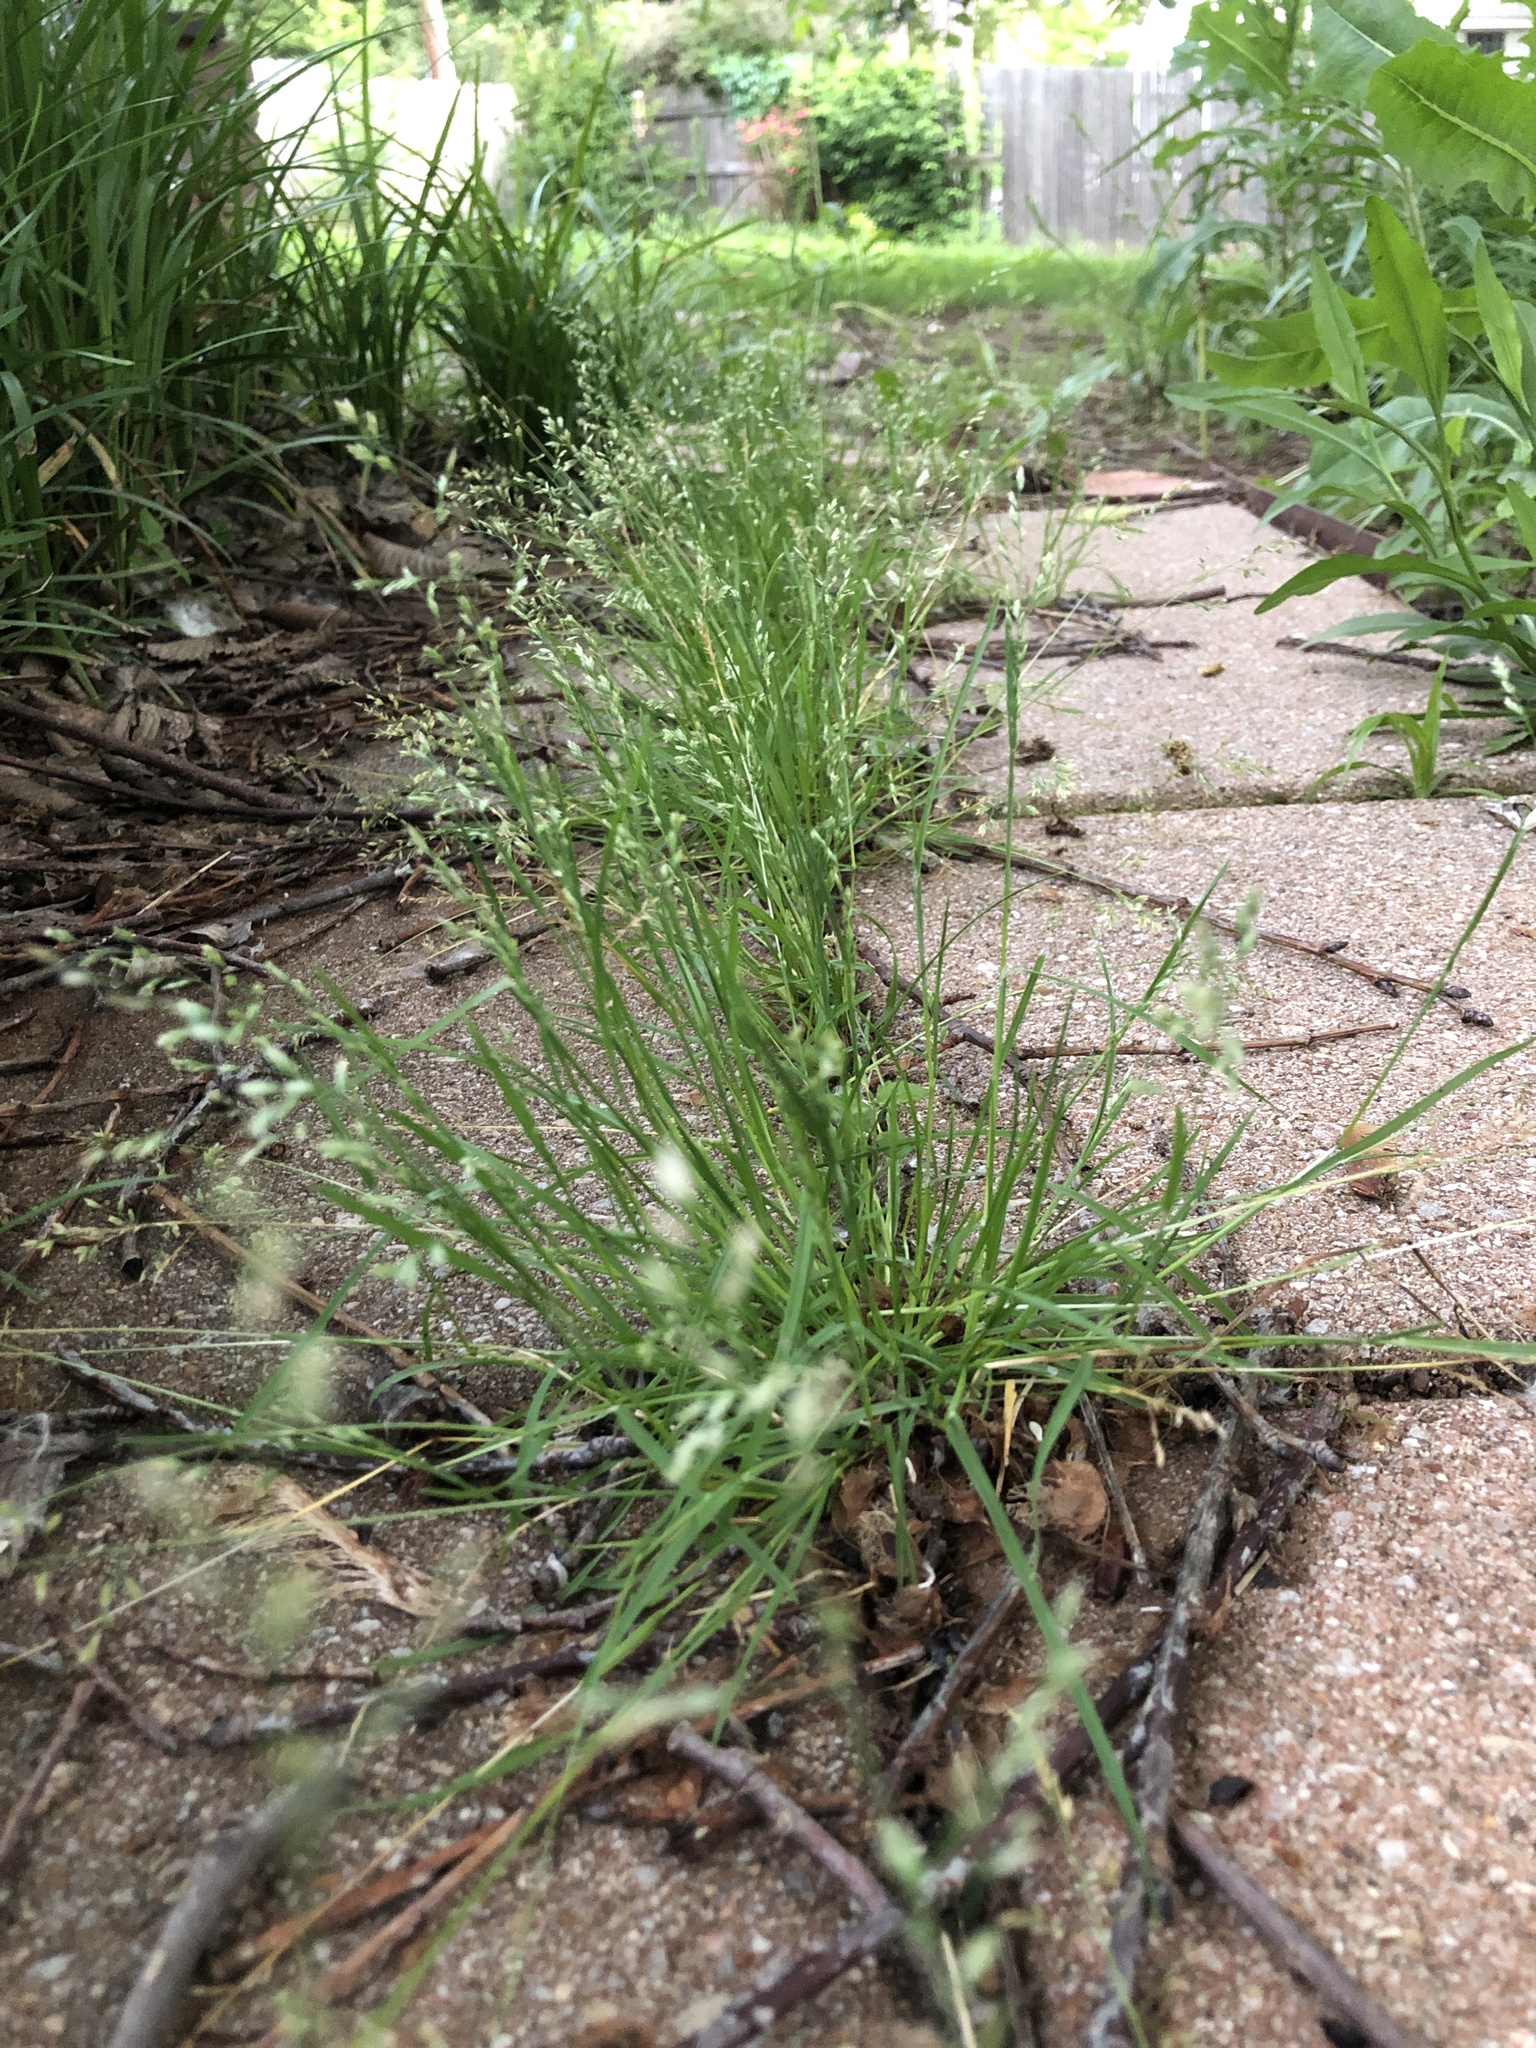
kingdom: Plantae
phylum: Tracheophyta
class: Liliopsida
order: Poales
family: Poaceae
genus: Poa
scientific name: Poa annua
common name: Annual bluegrass
